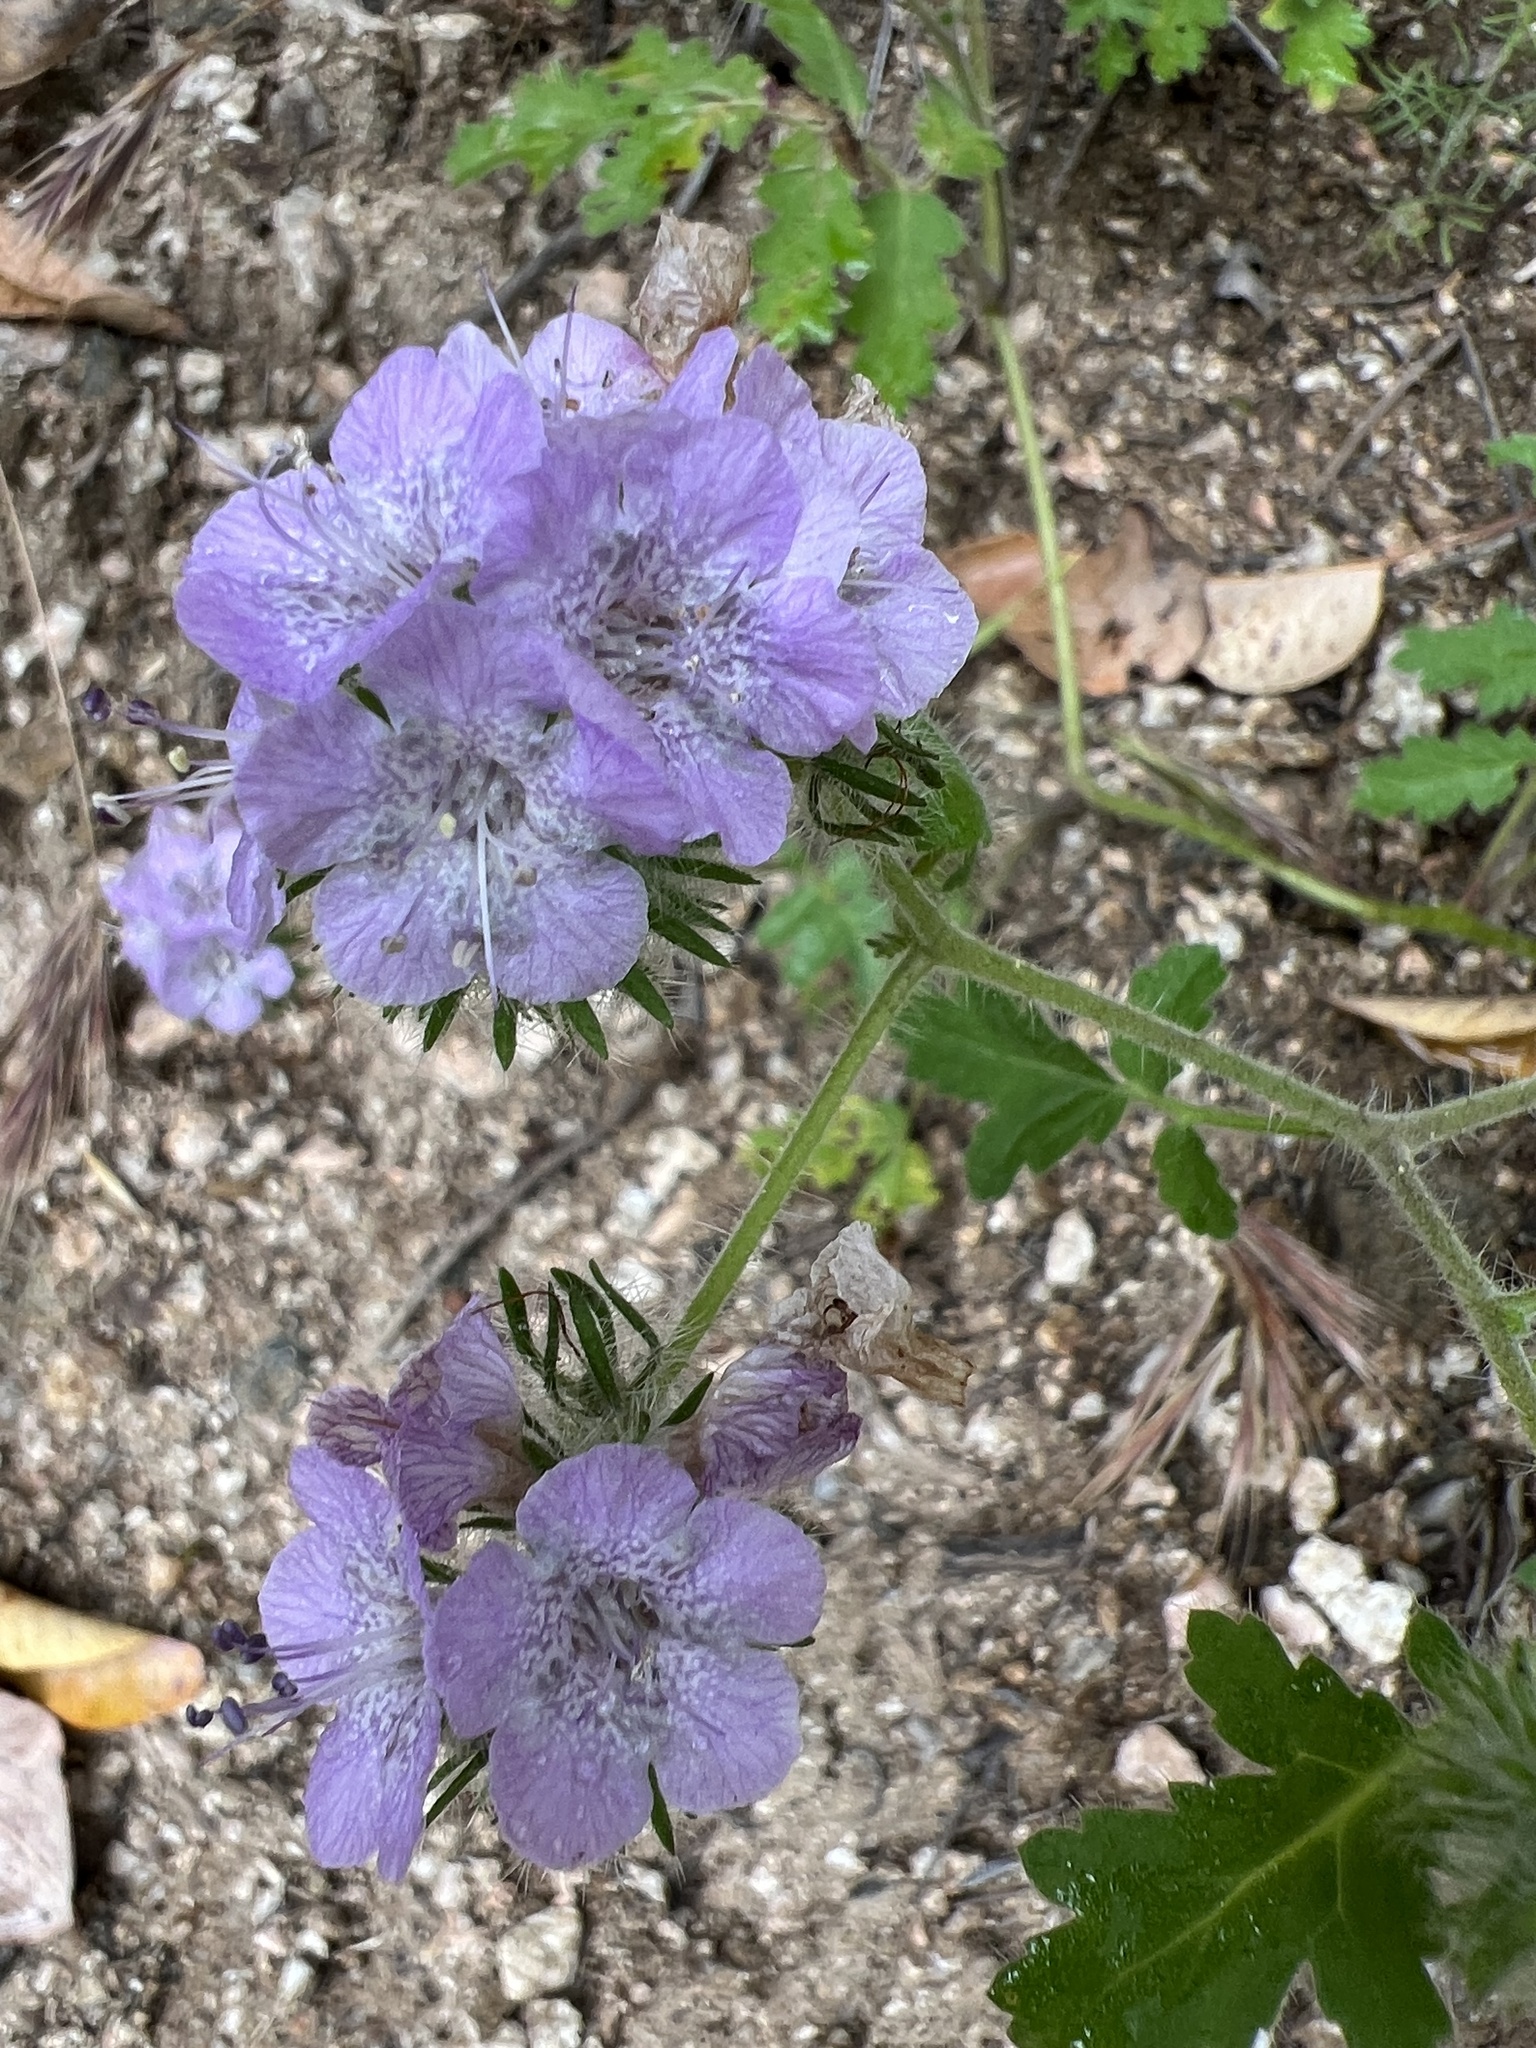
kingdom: Plantae
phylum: Tracheophyta
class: Magnoliopsida
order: Boraginales
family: Hydrophyllaceae
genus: Phacelia
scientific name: Phacelia cicutaria
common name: Caterpillar phacelia
